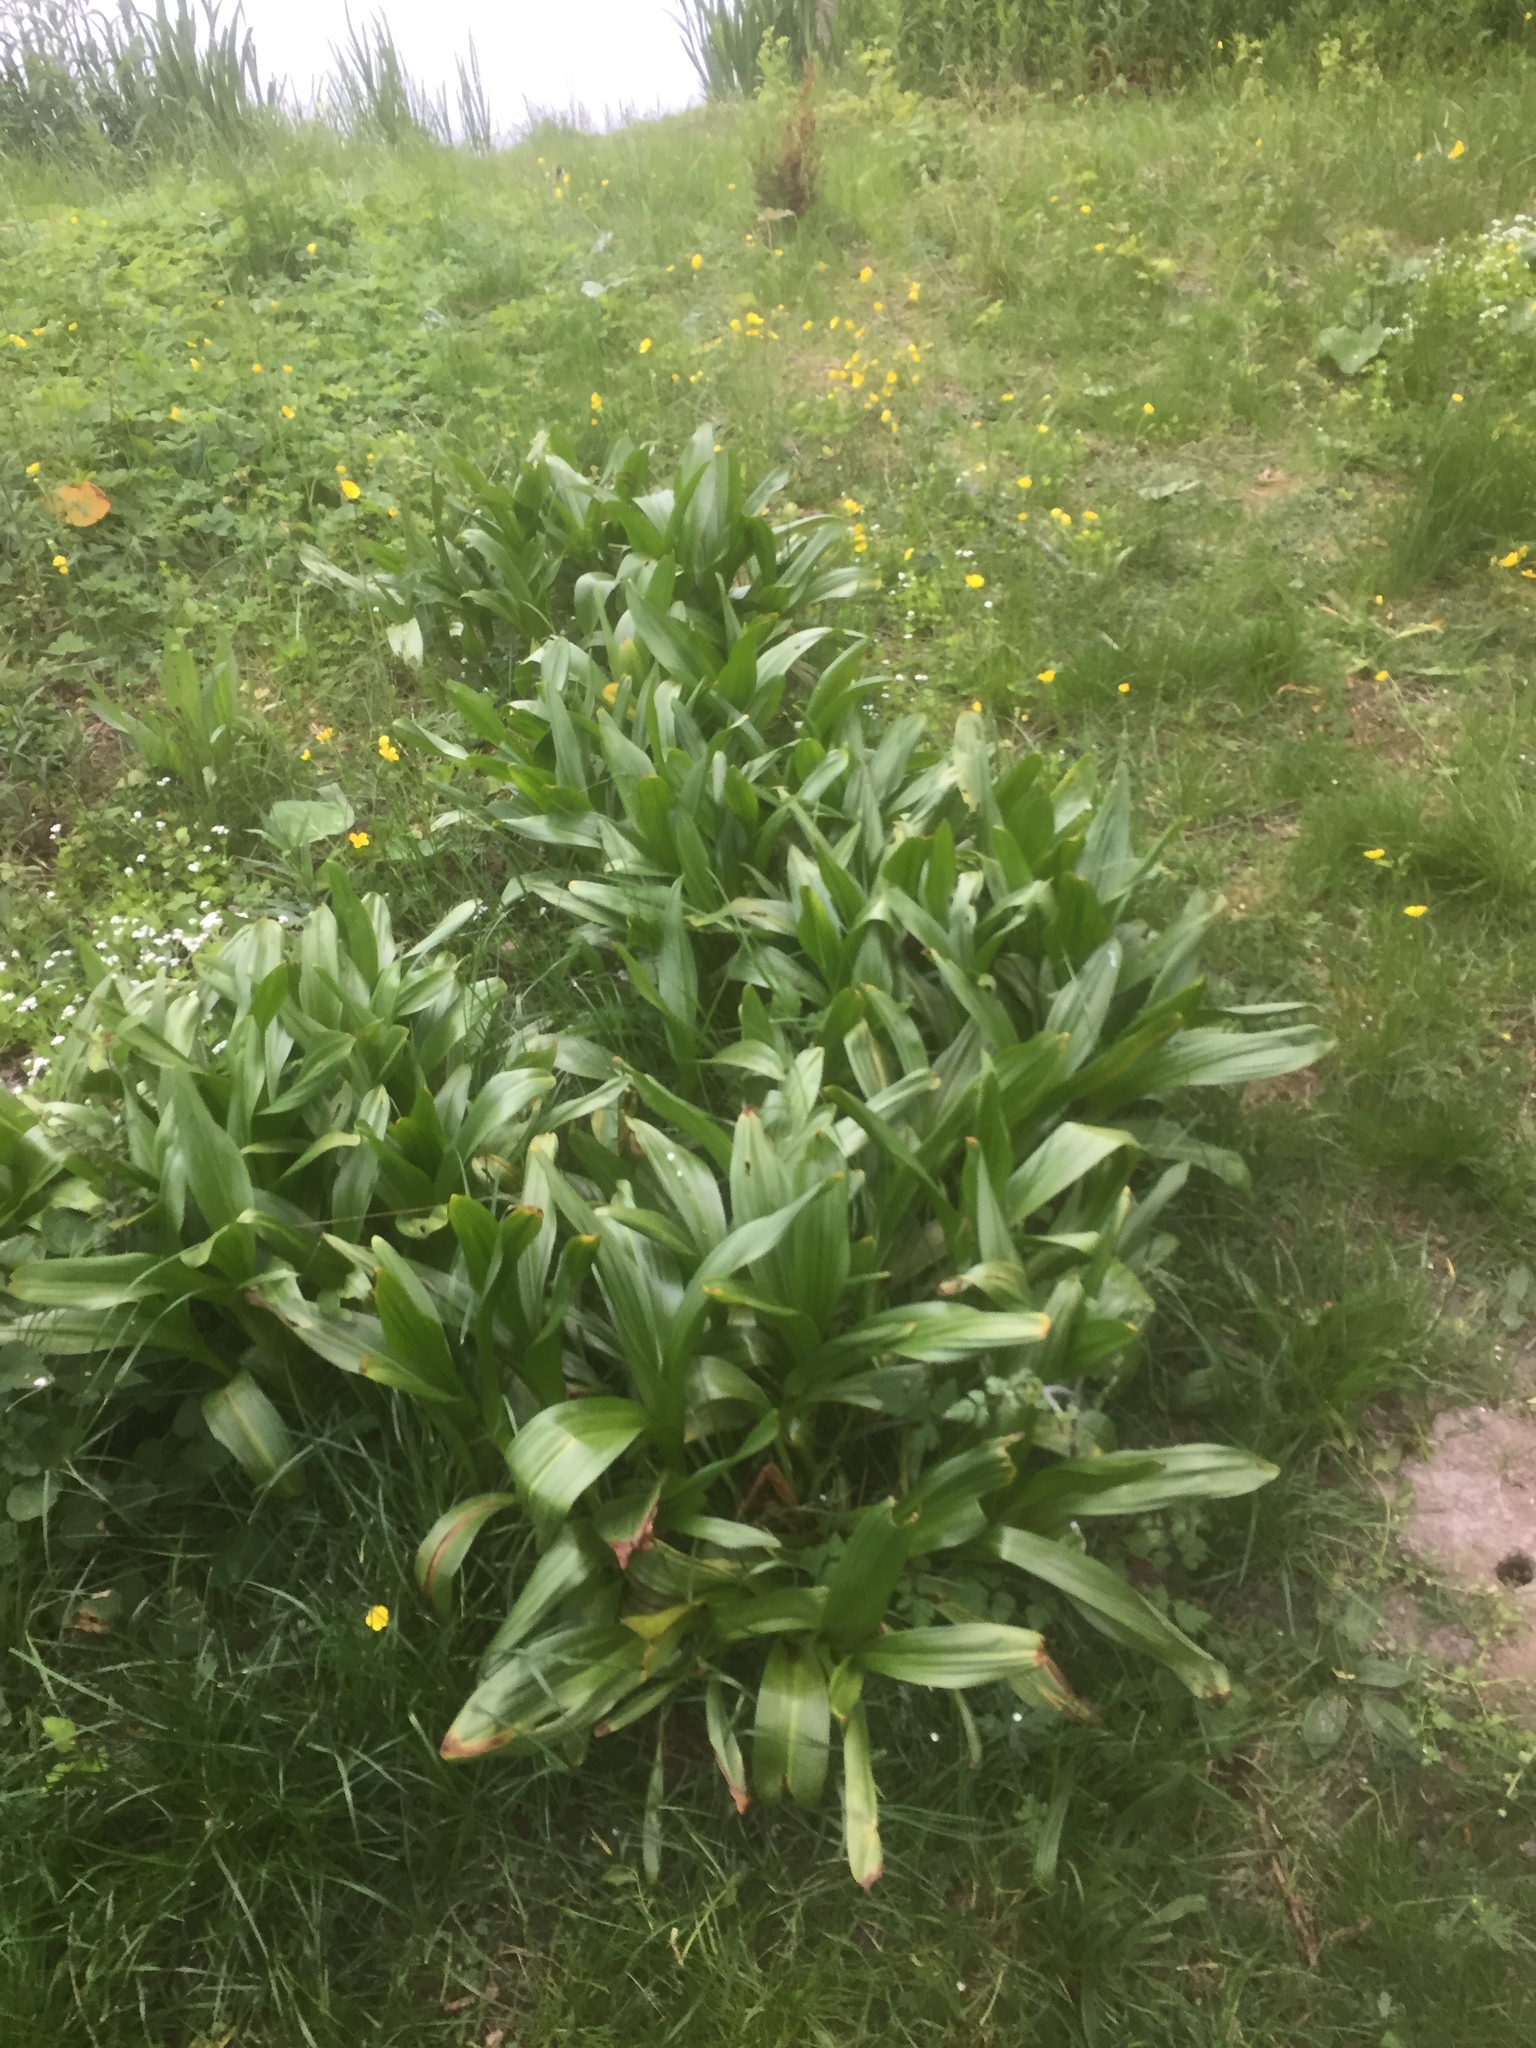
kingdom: Plantae
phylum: Tracheophyta
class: Liliopsida
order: Liliales
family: Colchicaceae
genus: Colchicum
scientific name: Colchicum autumnale
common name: Autumn crocus
